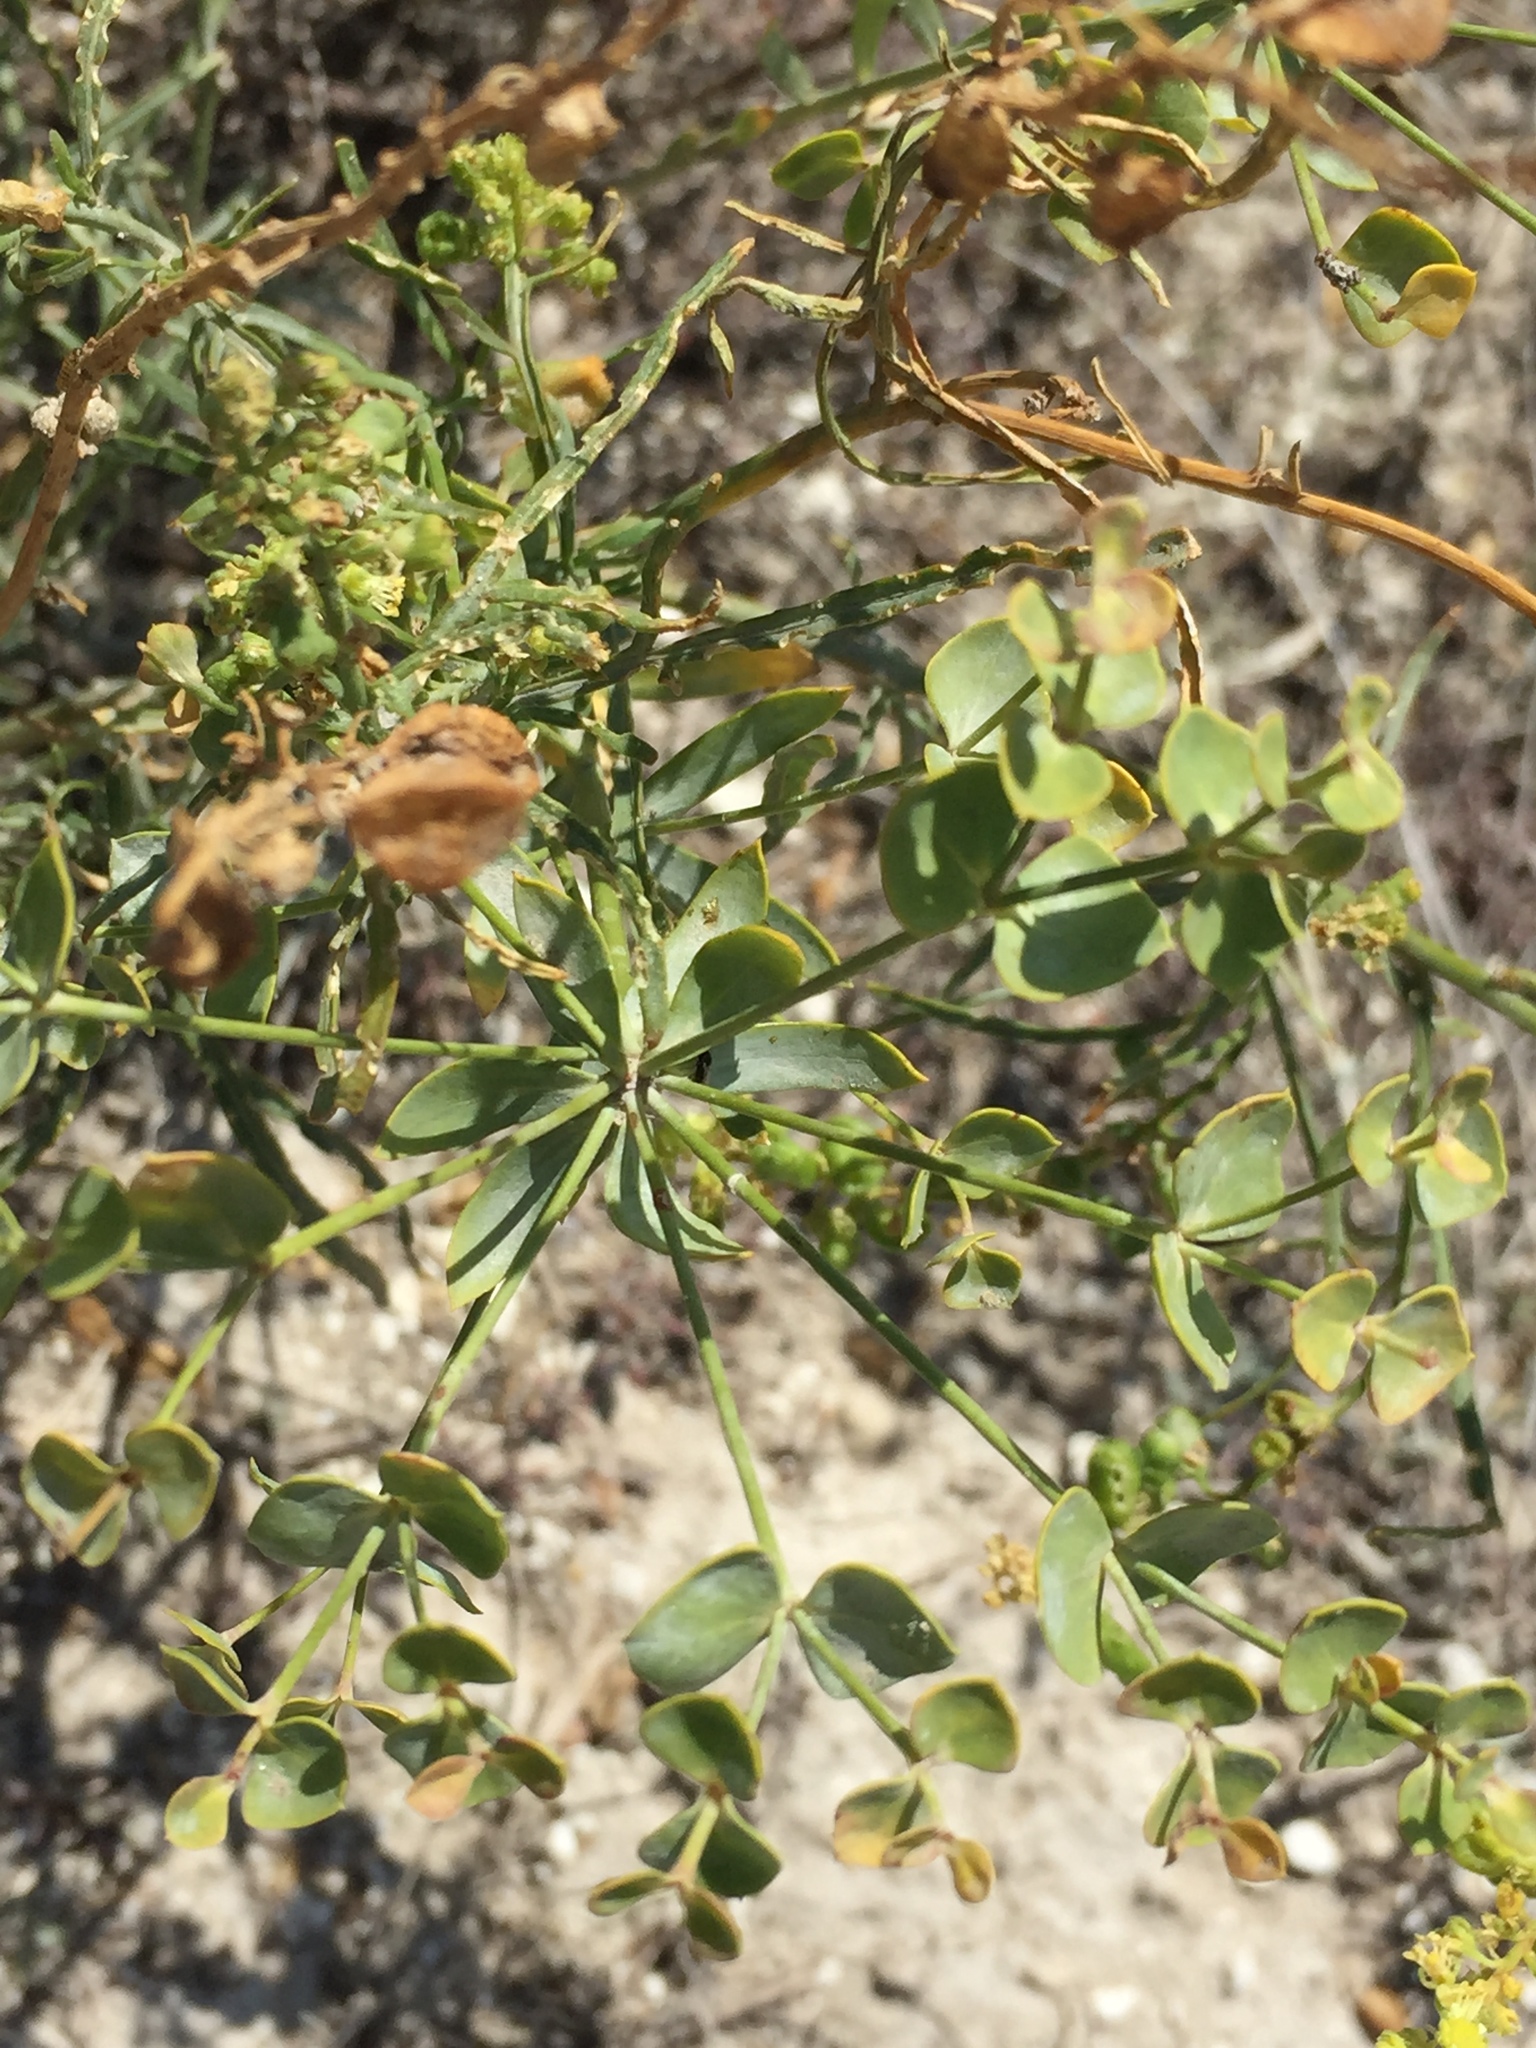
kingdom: Plantae
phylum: Tracheophyta
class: Magnoliopsida
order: Malpighiales
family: Euphorbiaceae
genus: Euphorbia
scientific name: Euphorbia seguieriana
